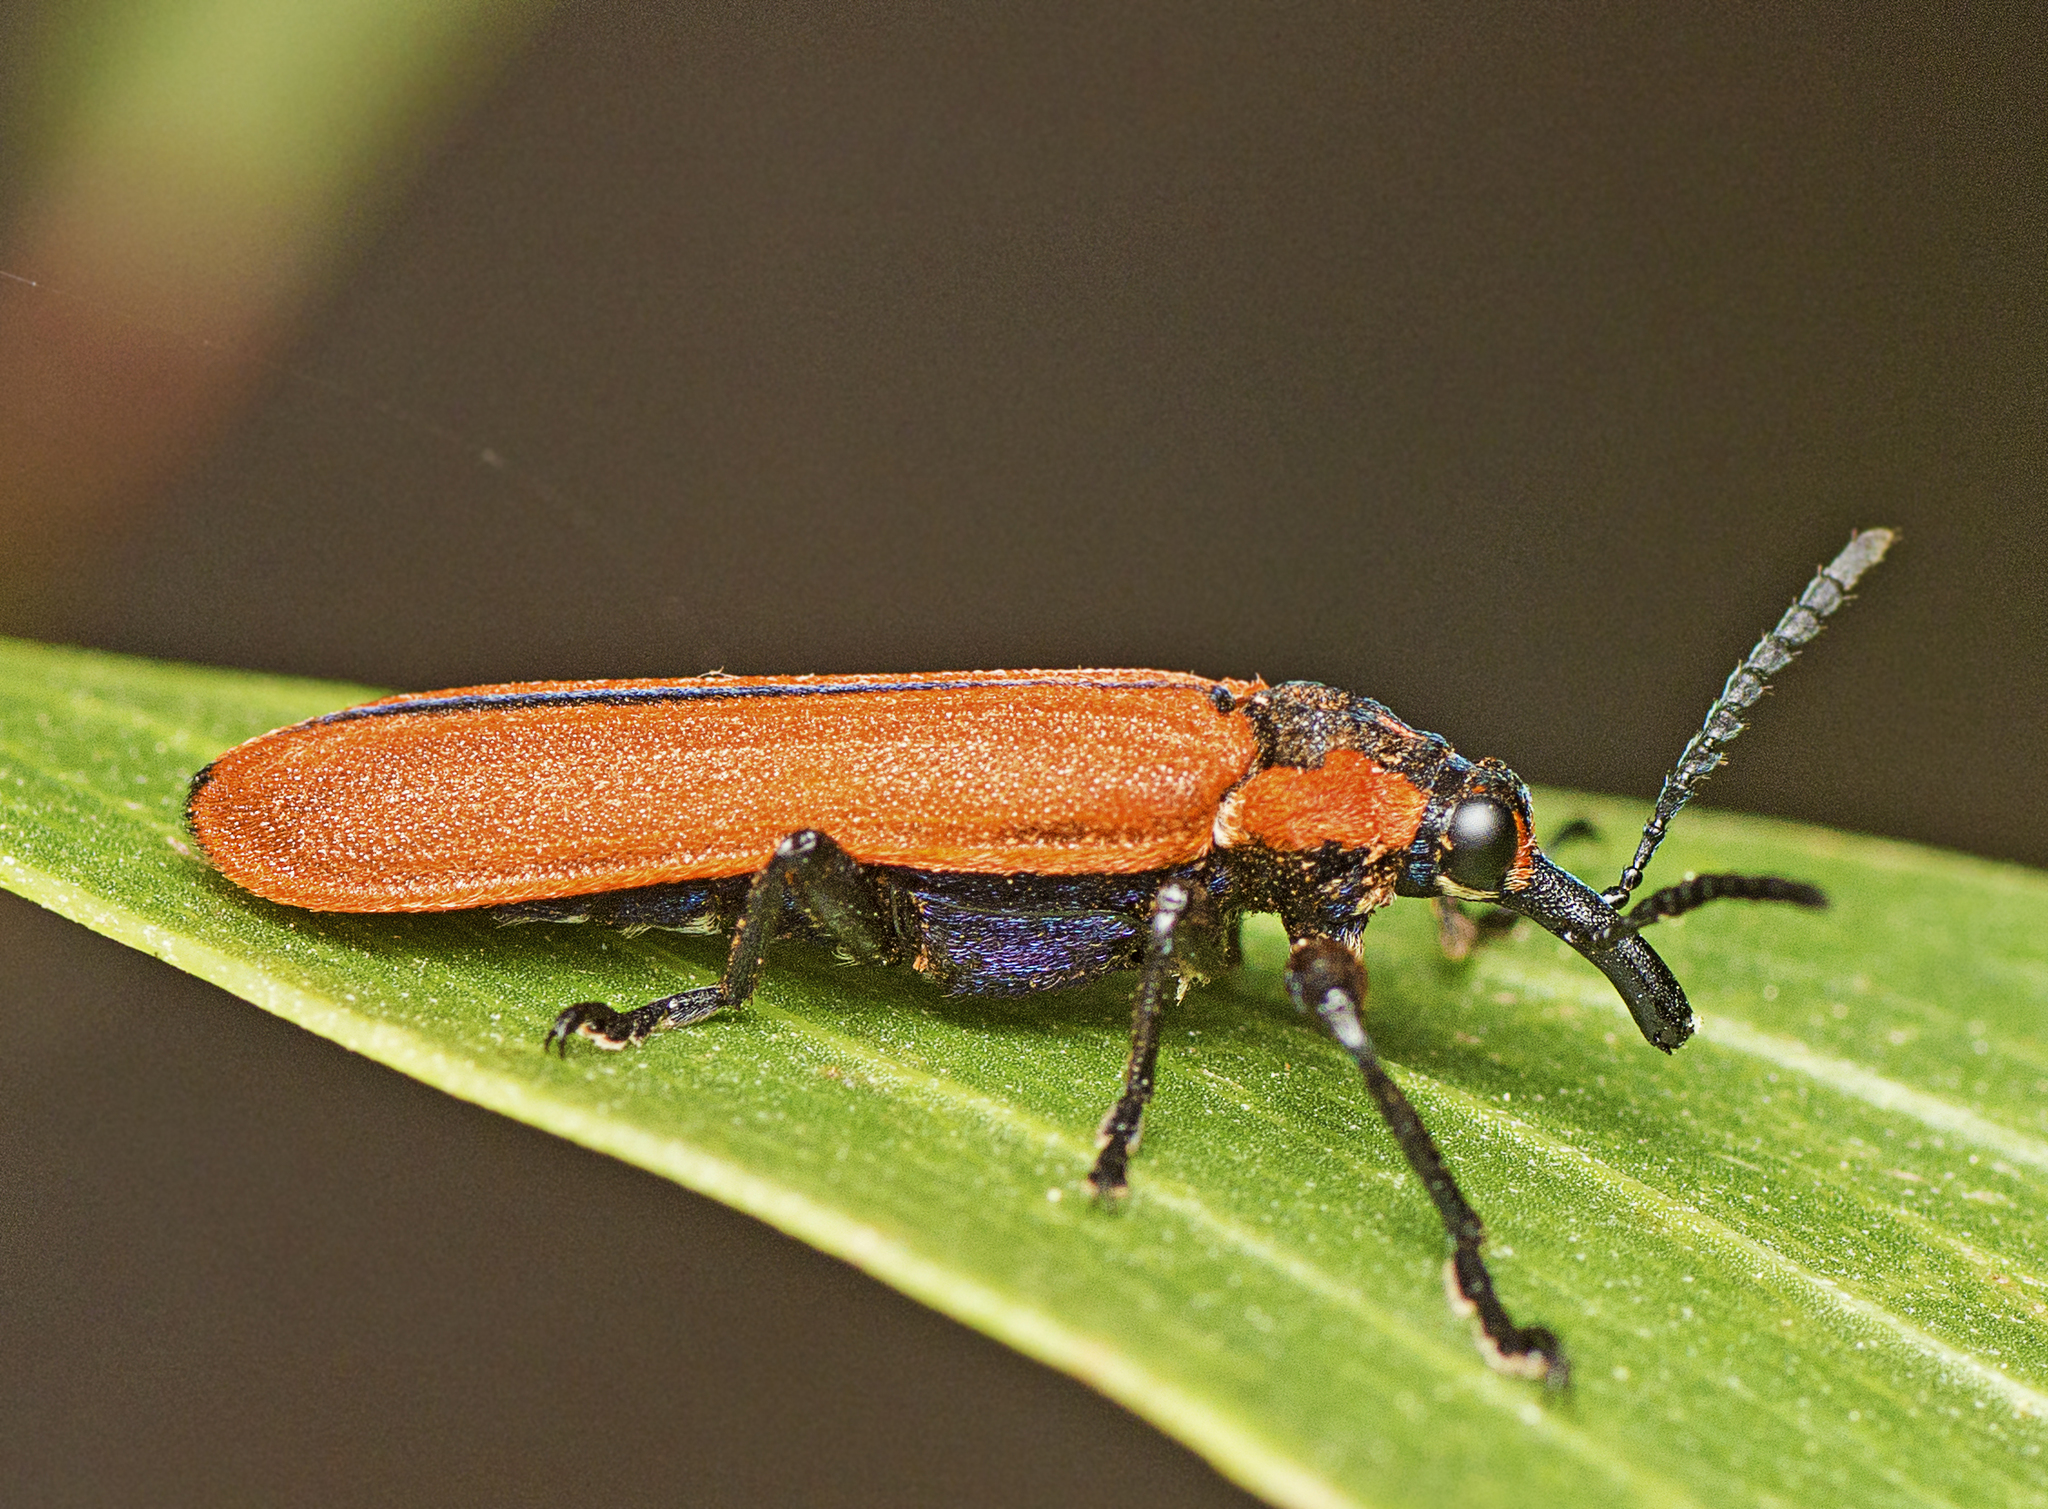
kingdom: Animalia
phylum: Arthropoda
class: Insecta
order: Coleoptera
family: Belidae
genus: Rhinotia
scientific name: Rhinotia haemoptera
